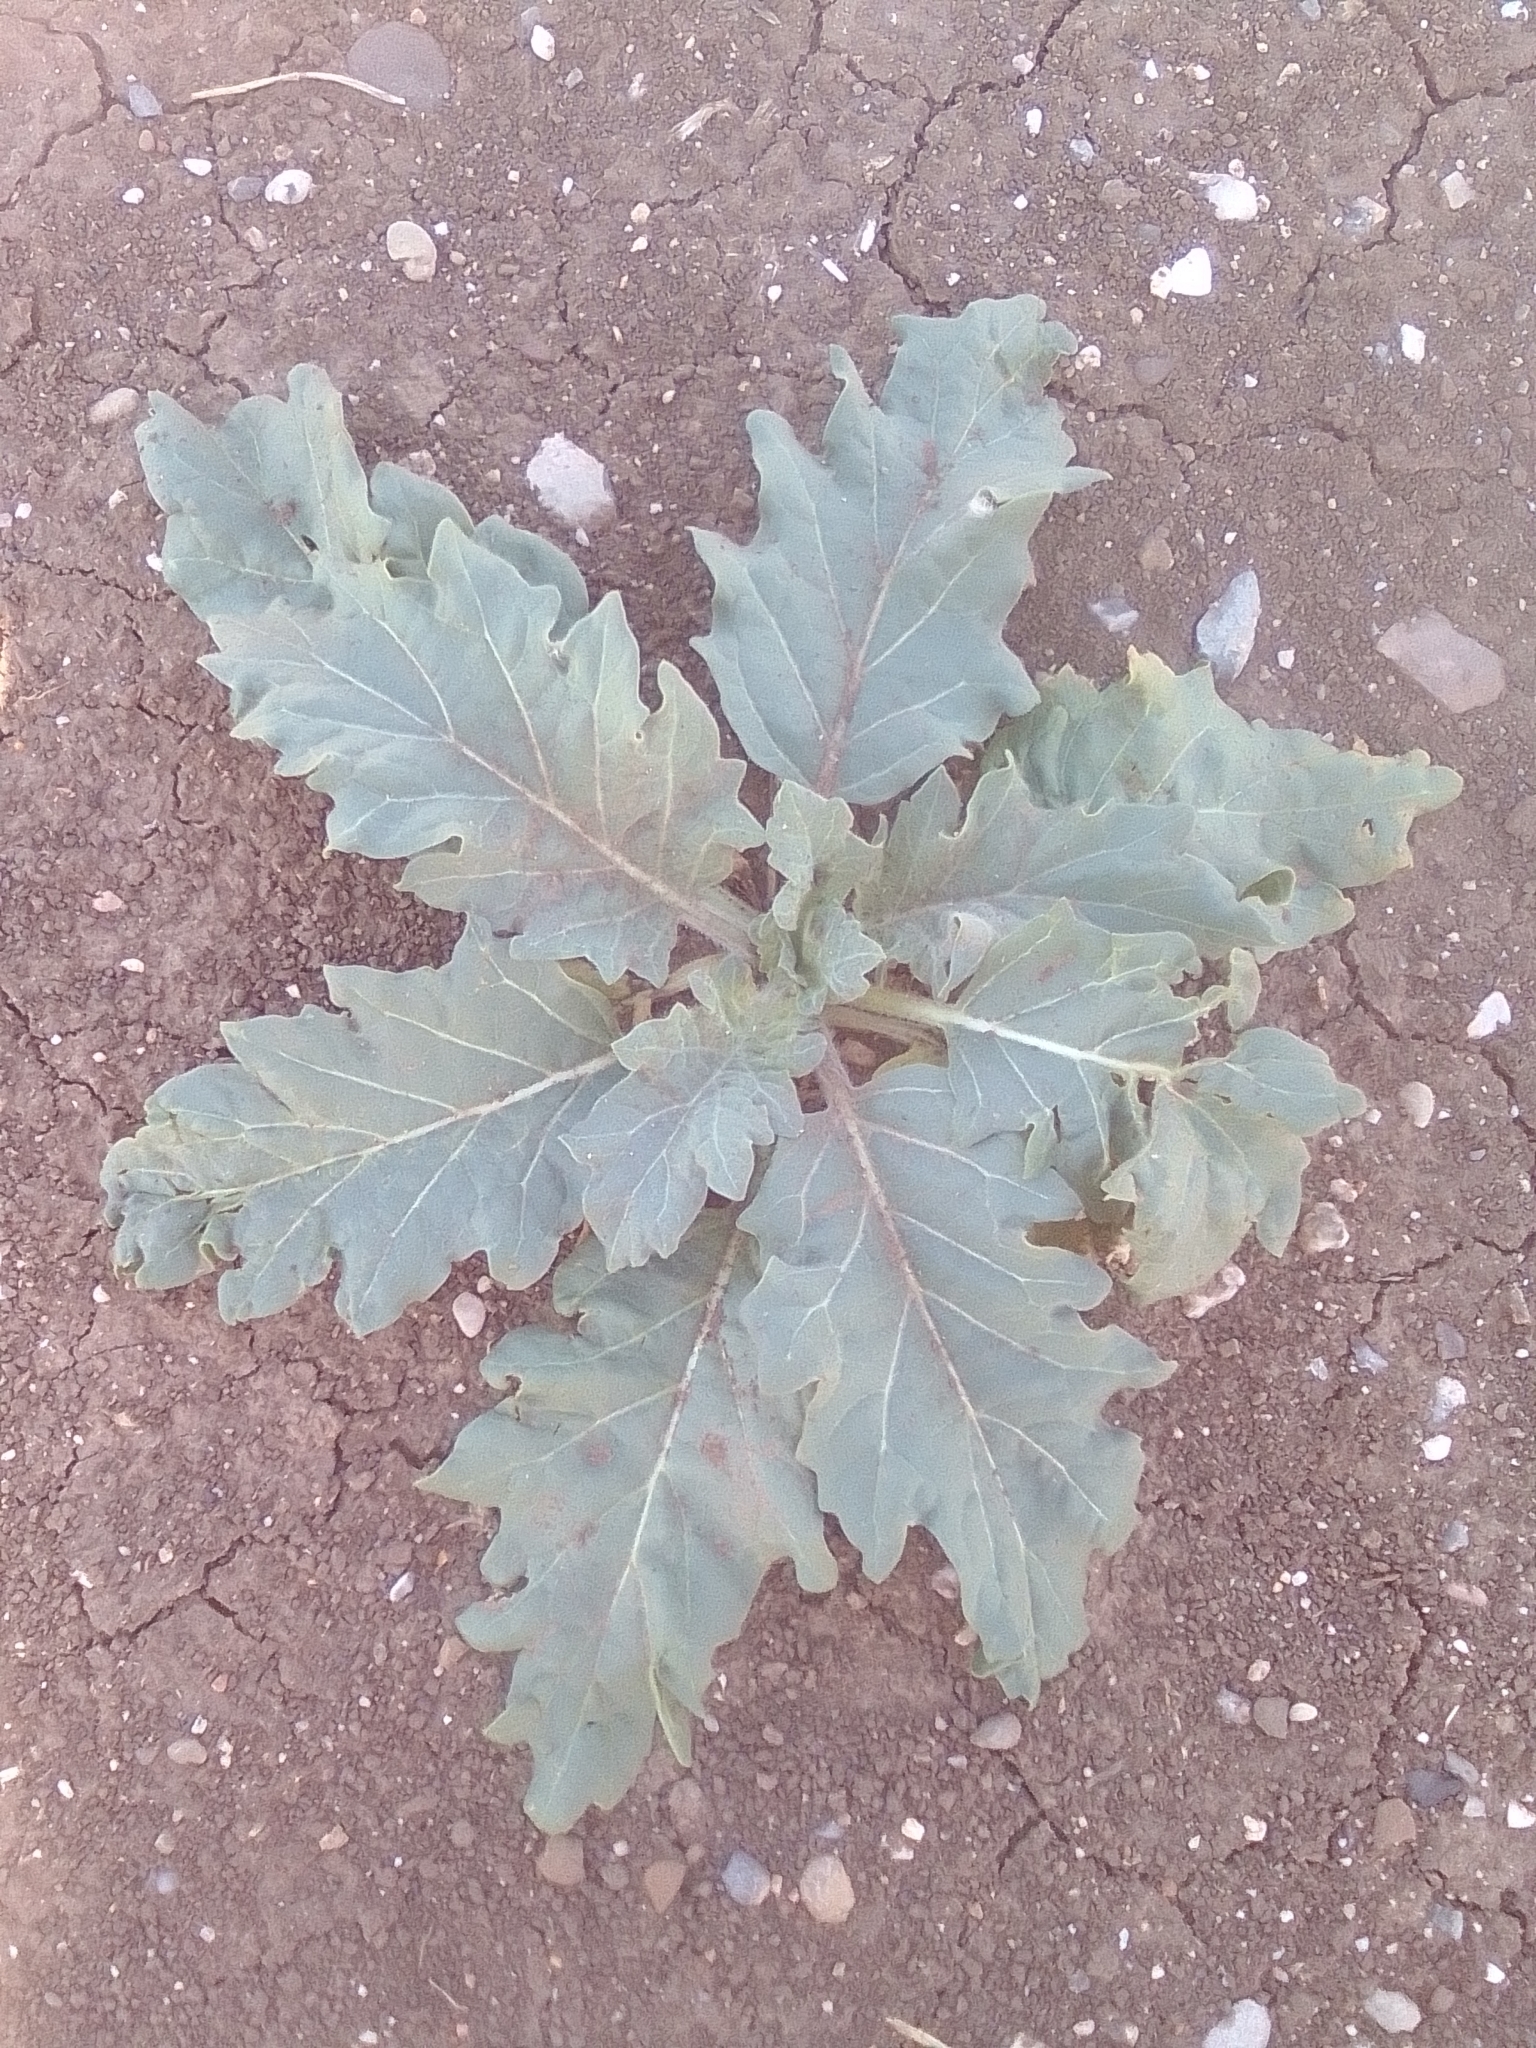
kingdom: Plantae
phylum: Tracheophyta
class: Magnoliopsida
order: Solanales
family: Solanaceae
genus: Hyoscyamus
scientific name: Hyoscyamus niger
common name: Henbane
